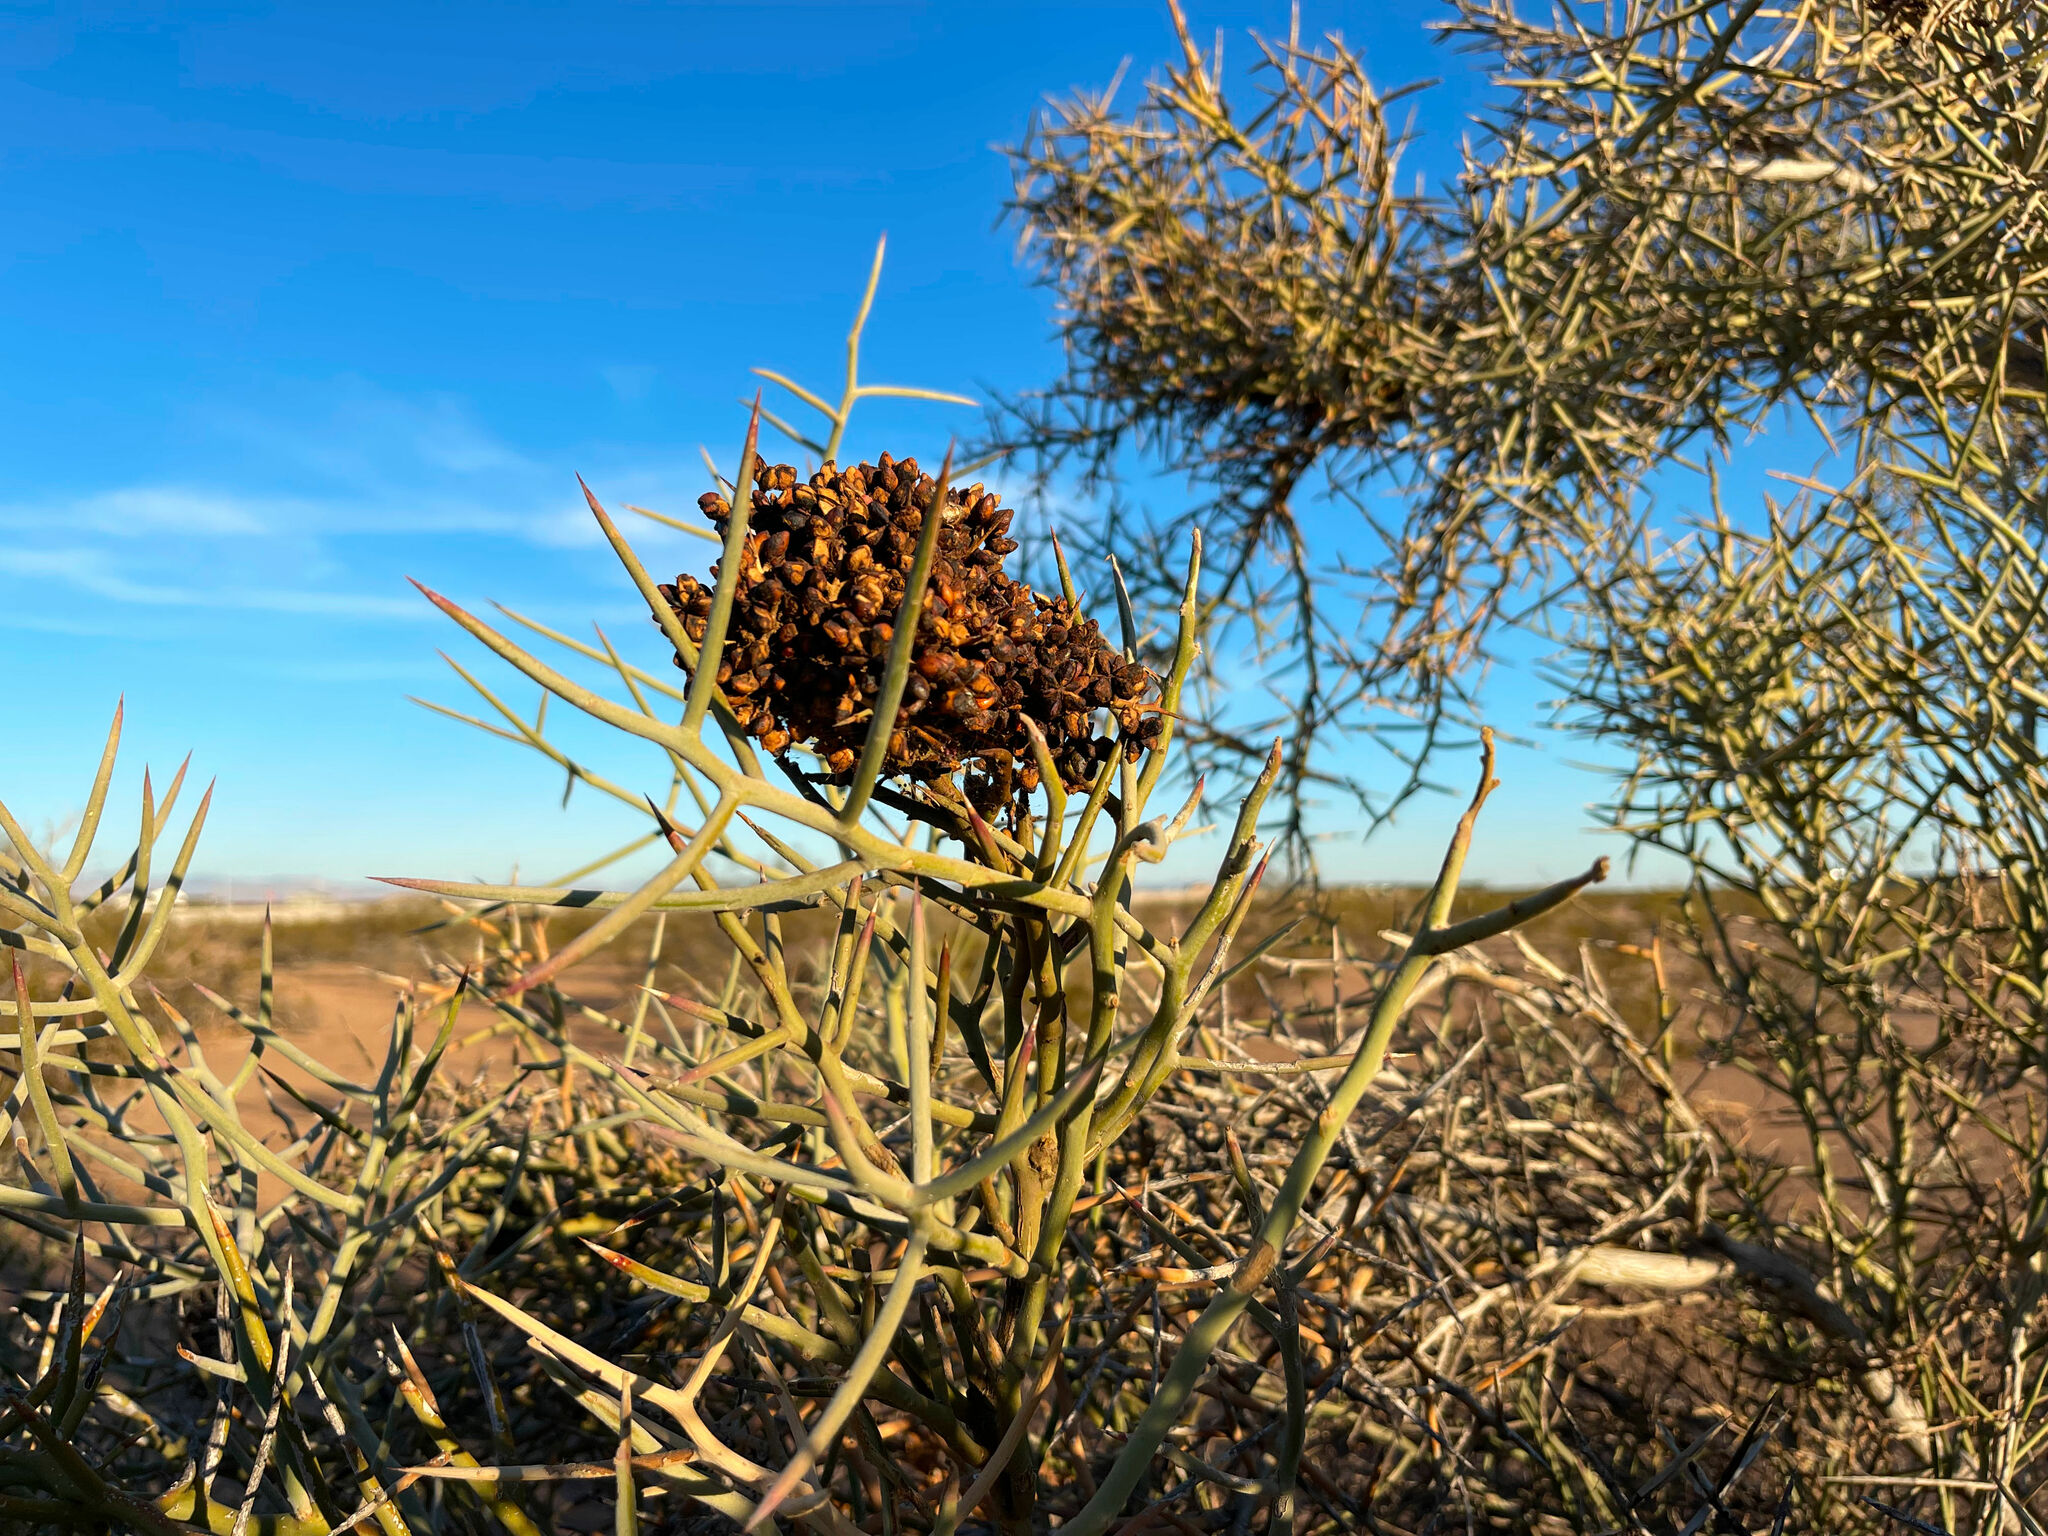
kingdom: Plantae
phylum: Tracheophyta
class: Magnoliopsida
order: Sapindales
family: Simaroubaceae
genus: Holacantha
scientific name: Holacantha emoryi
